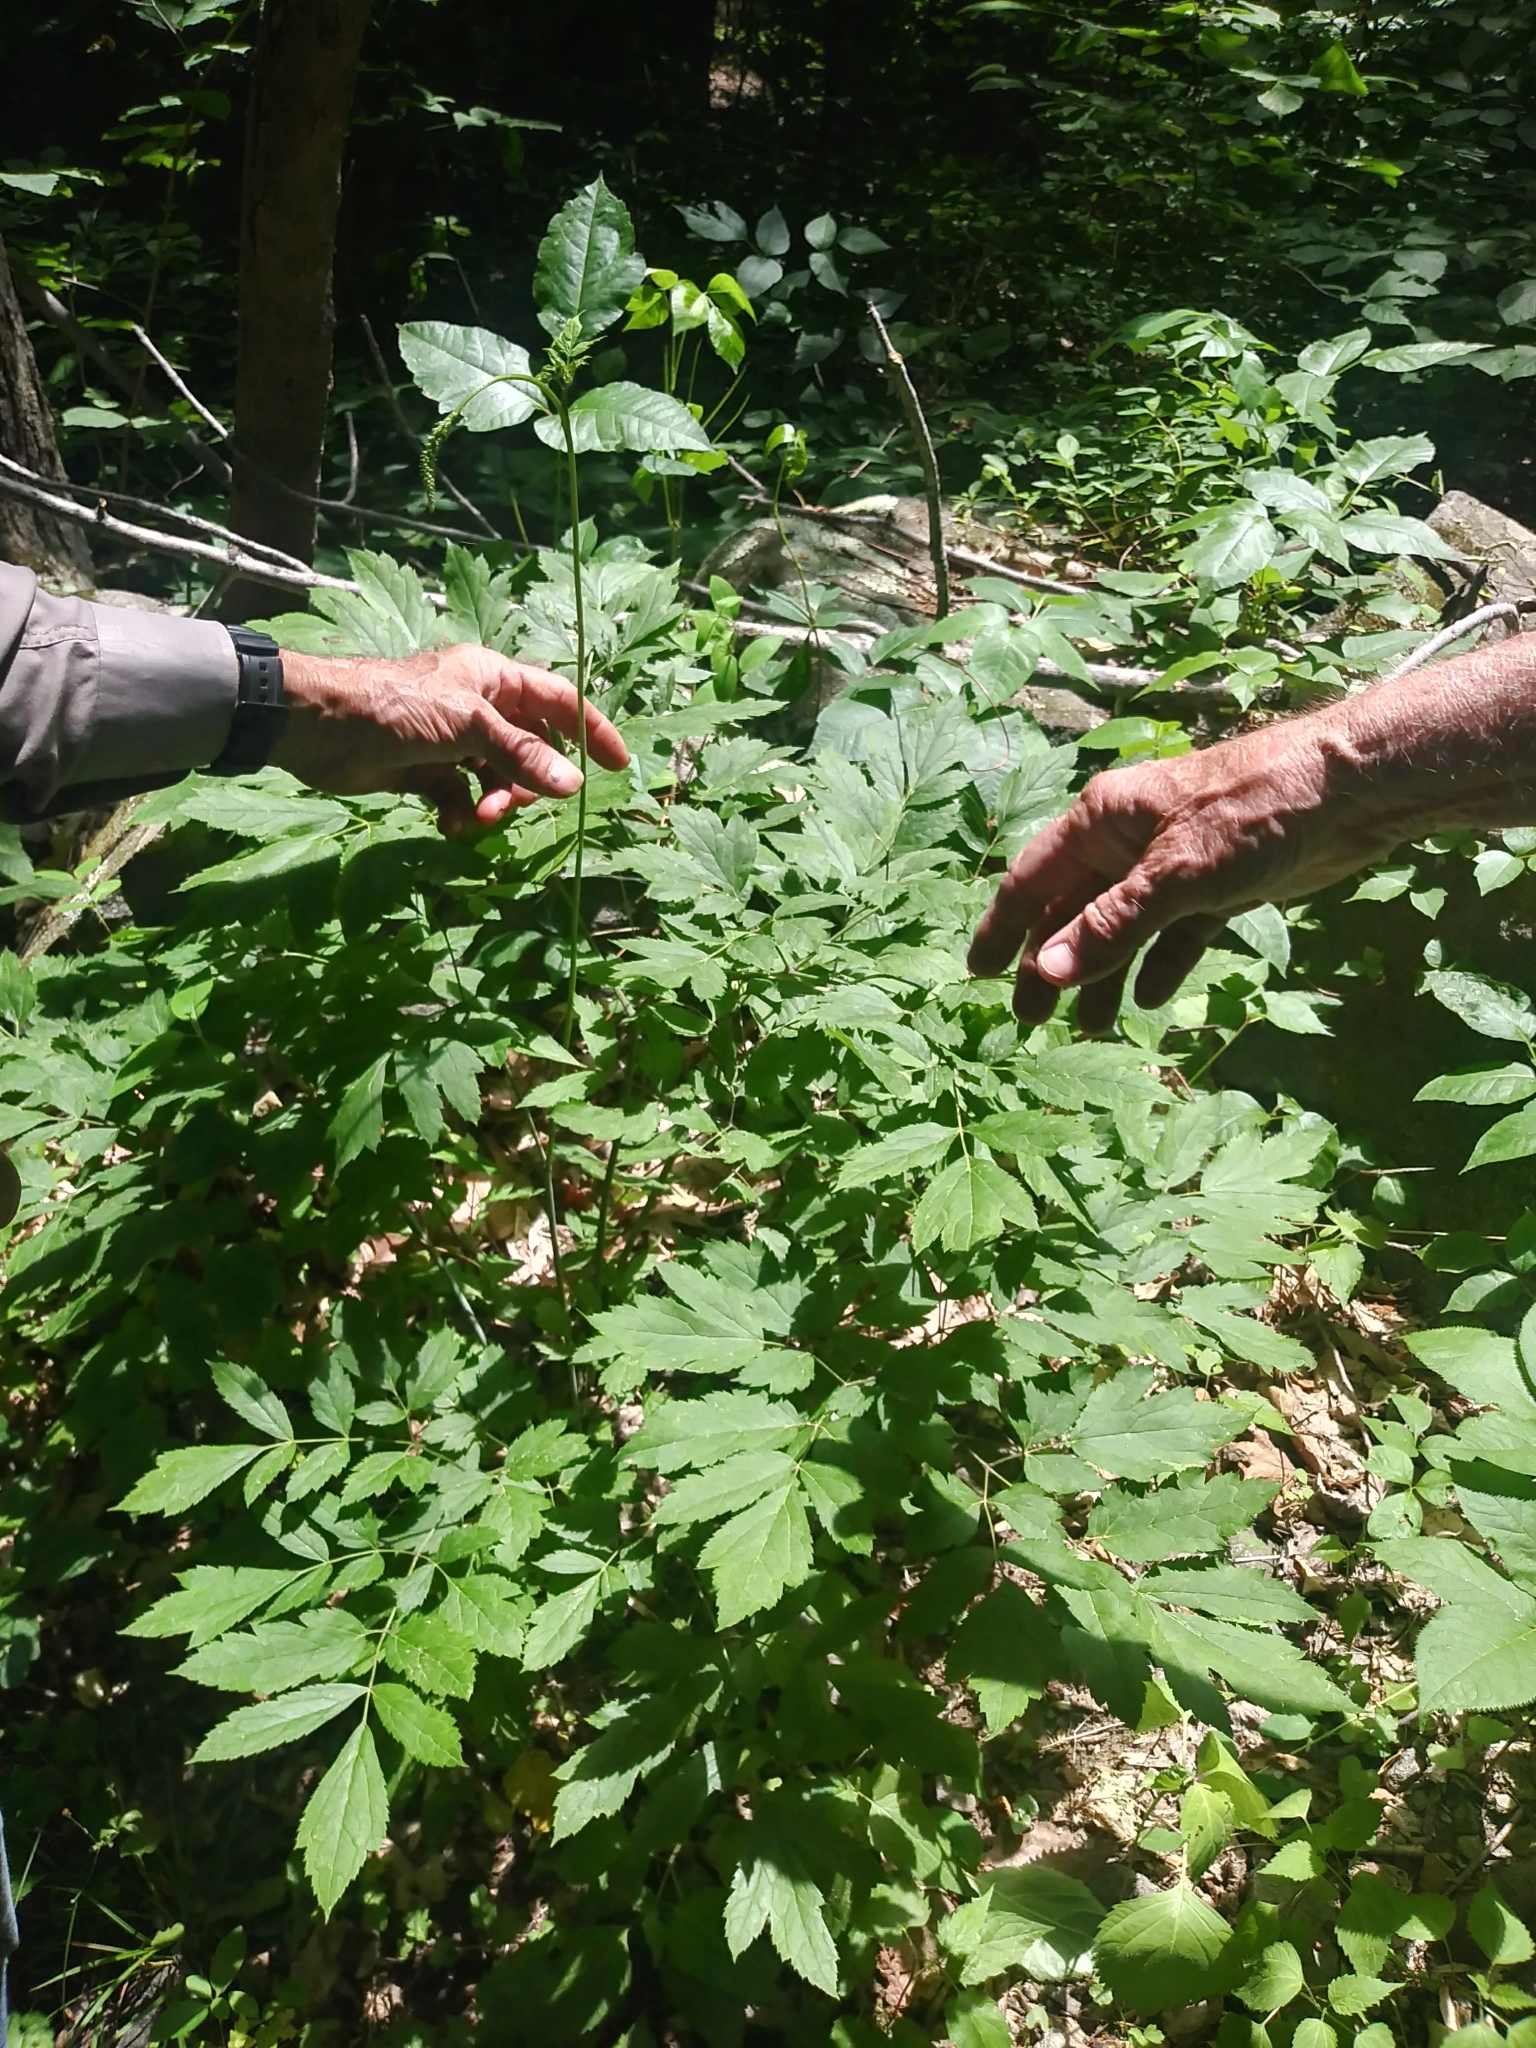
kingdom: Plantae
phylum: Tracheophyta
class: Magnoliopsida
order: Ranunculales
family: Ranunculaceae
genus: Actaea
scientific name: Actaea racemosa
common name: Black cohosh
